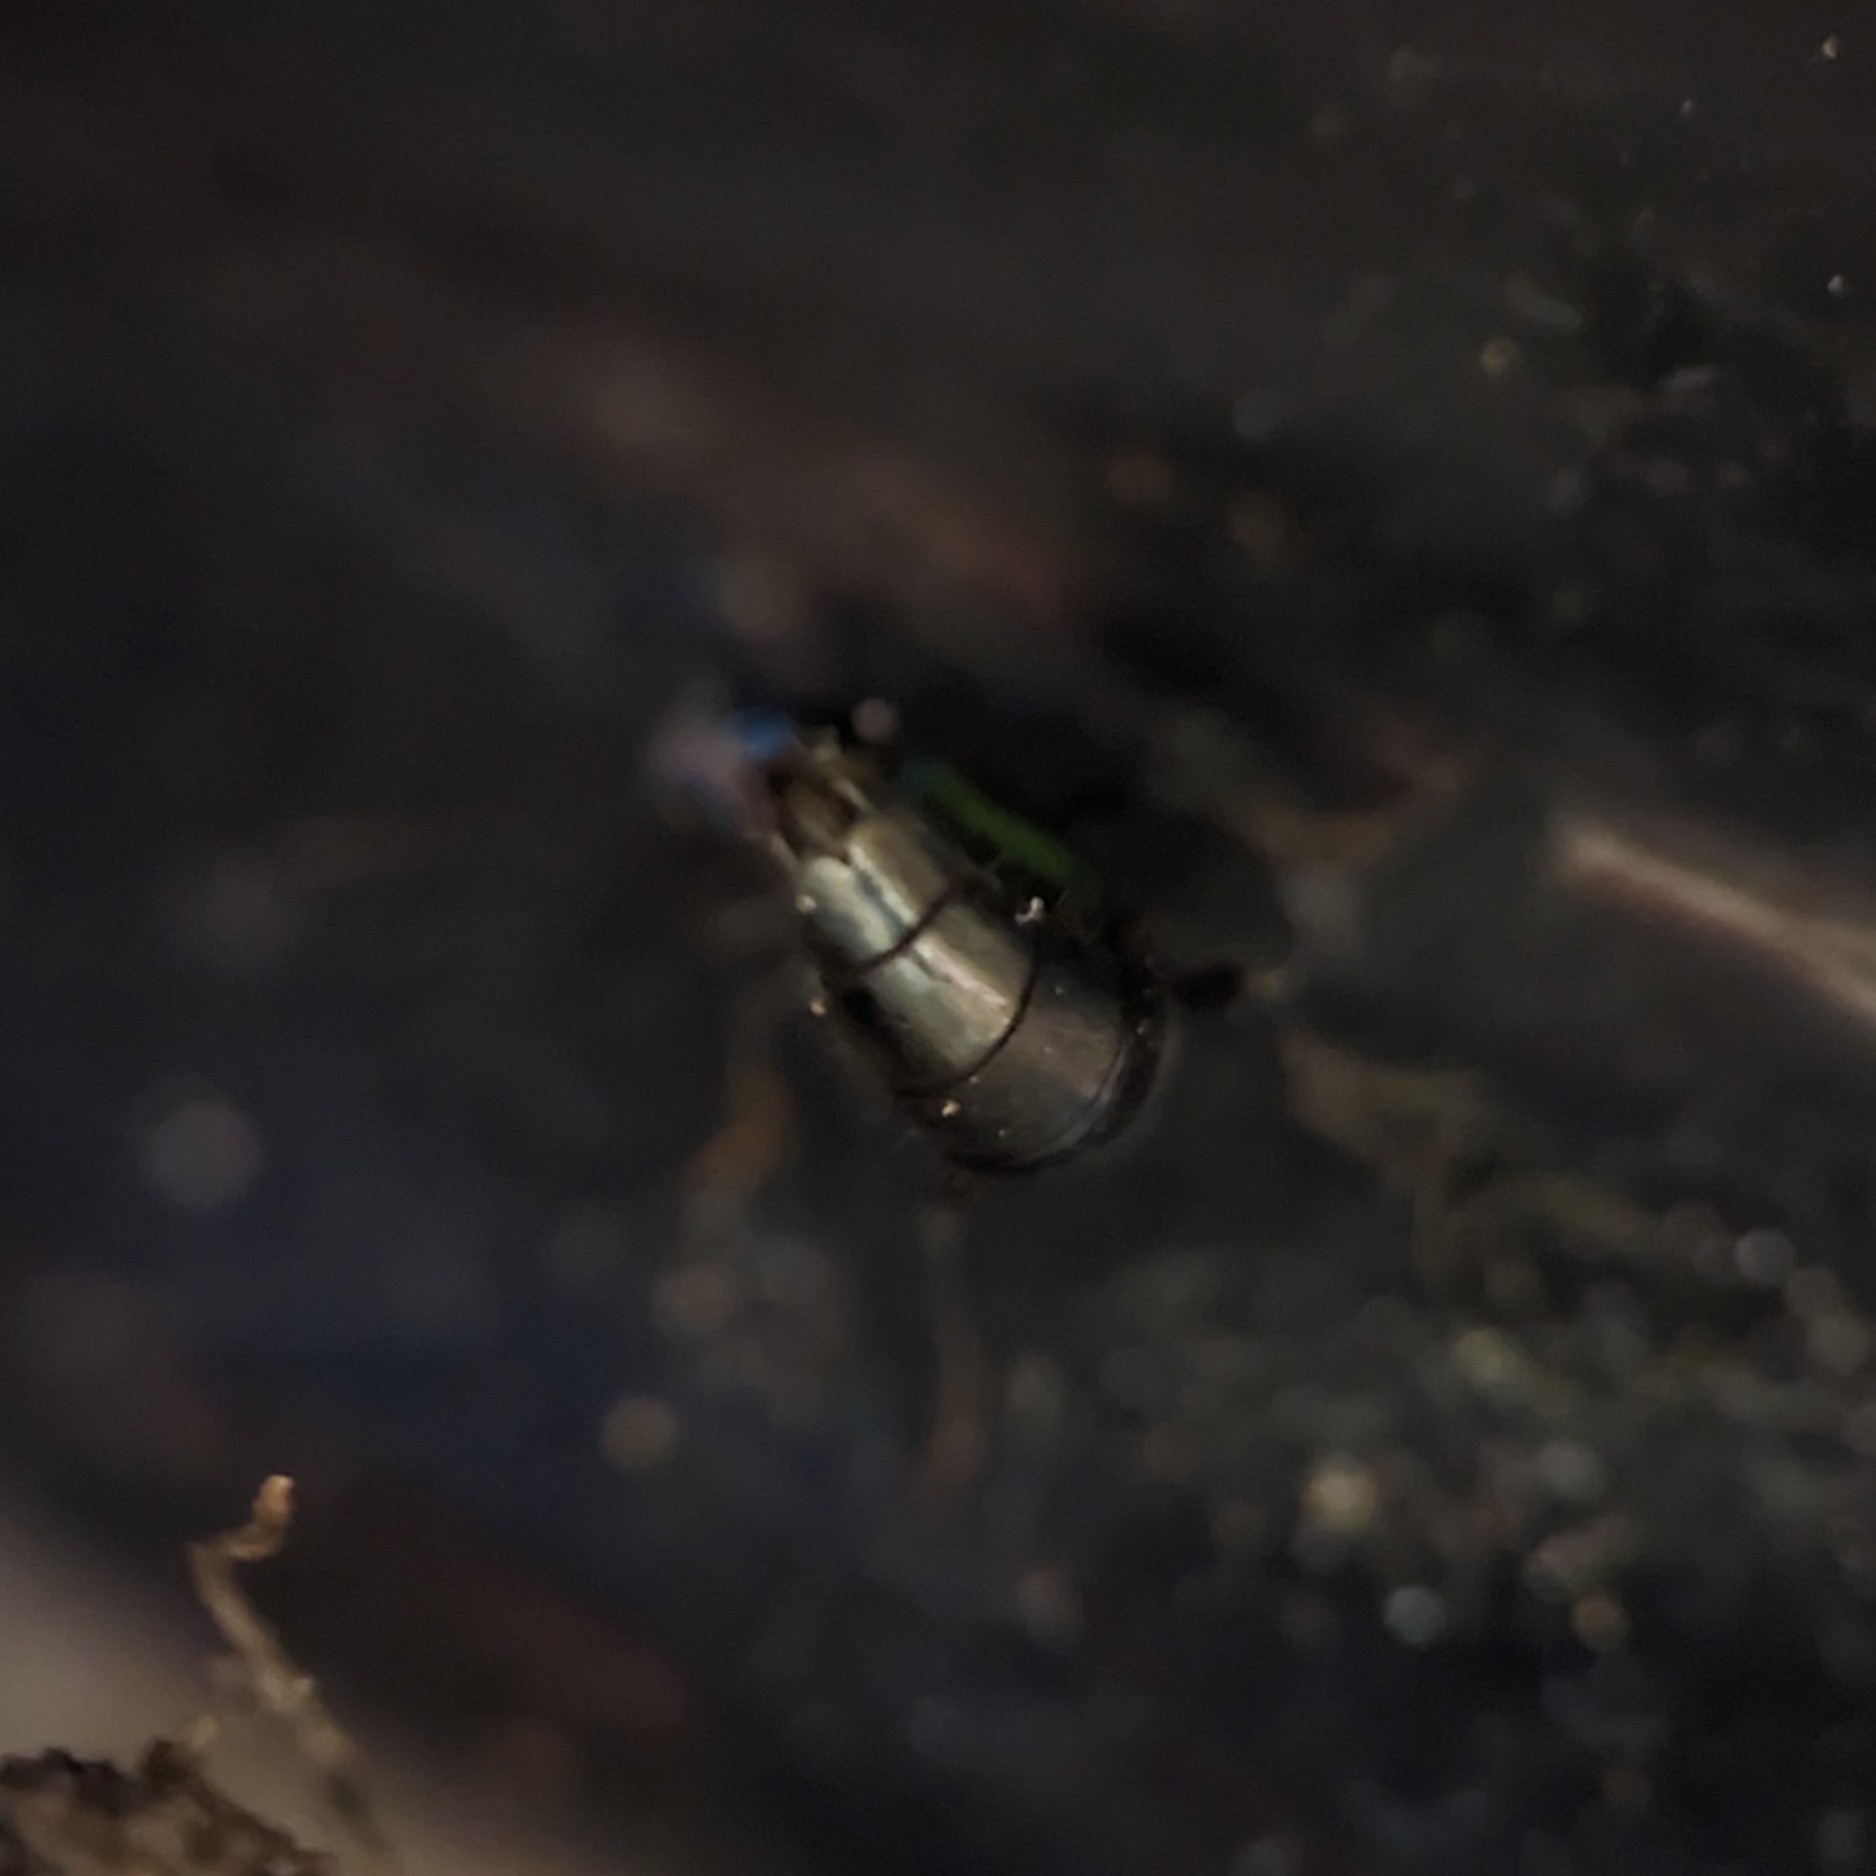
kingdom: Animalia
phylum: Arthropoda
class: Insecta
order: Coleoptera
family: Staphylinidae
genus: Philonthus
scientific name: Philonthus caeruleipennis
